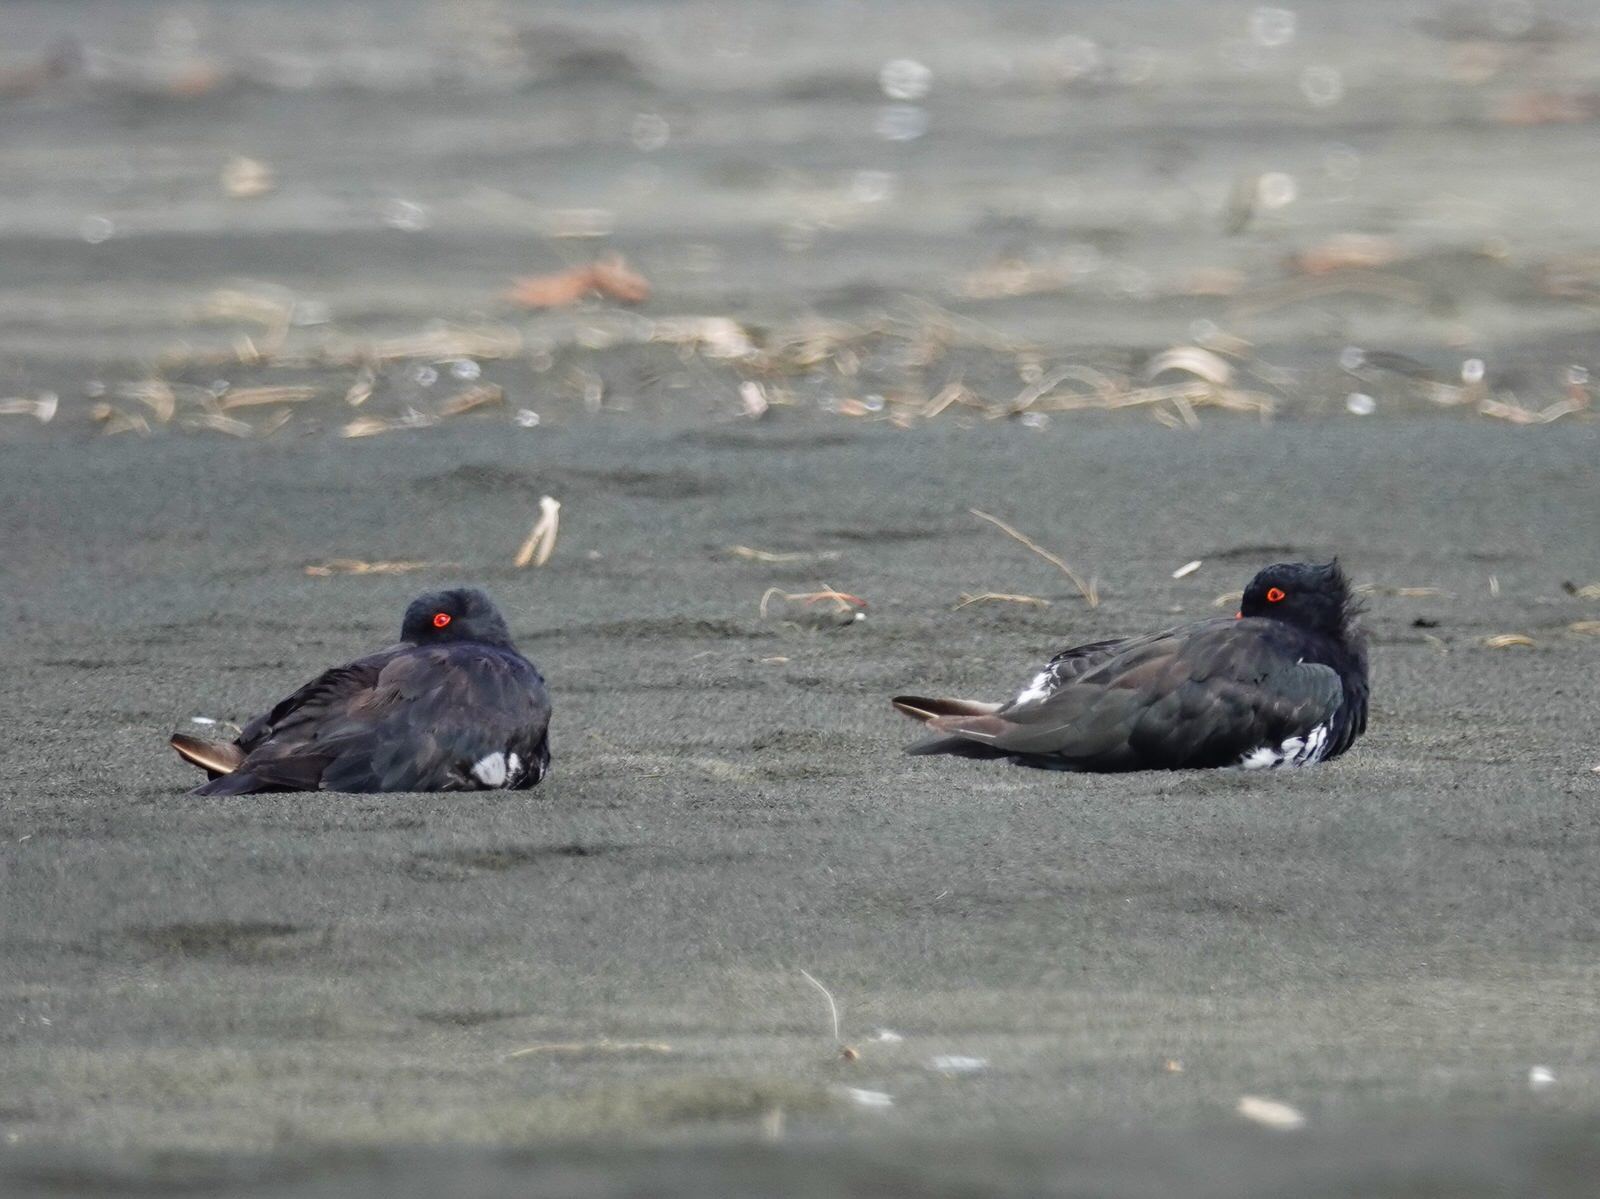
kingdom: Animalia
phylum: Chordata
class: Aves
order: Charadriiformes
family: Haematopodidae
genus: Haematopus
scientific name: Haematopus unicolor
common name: Variable oystercatcher
